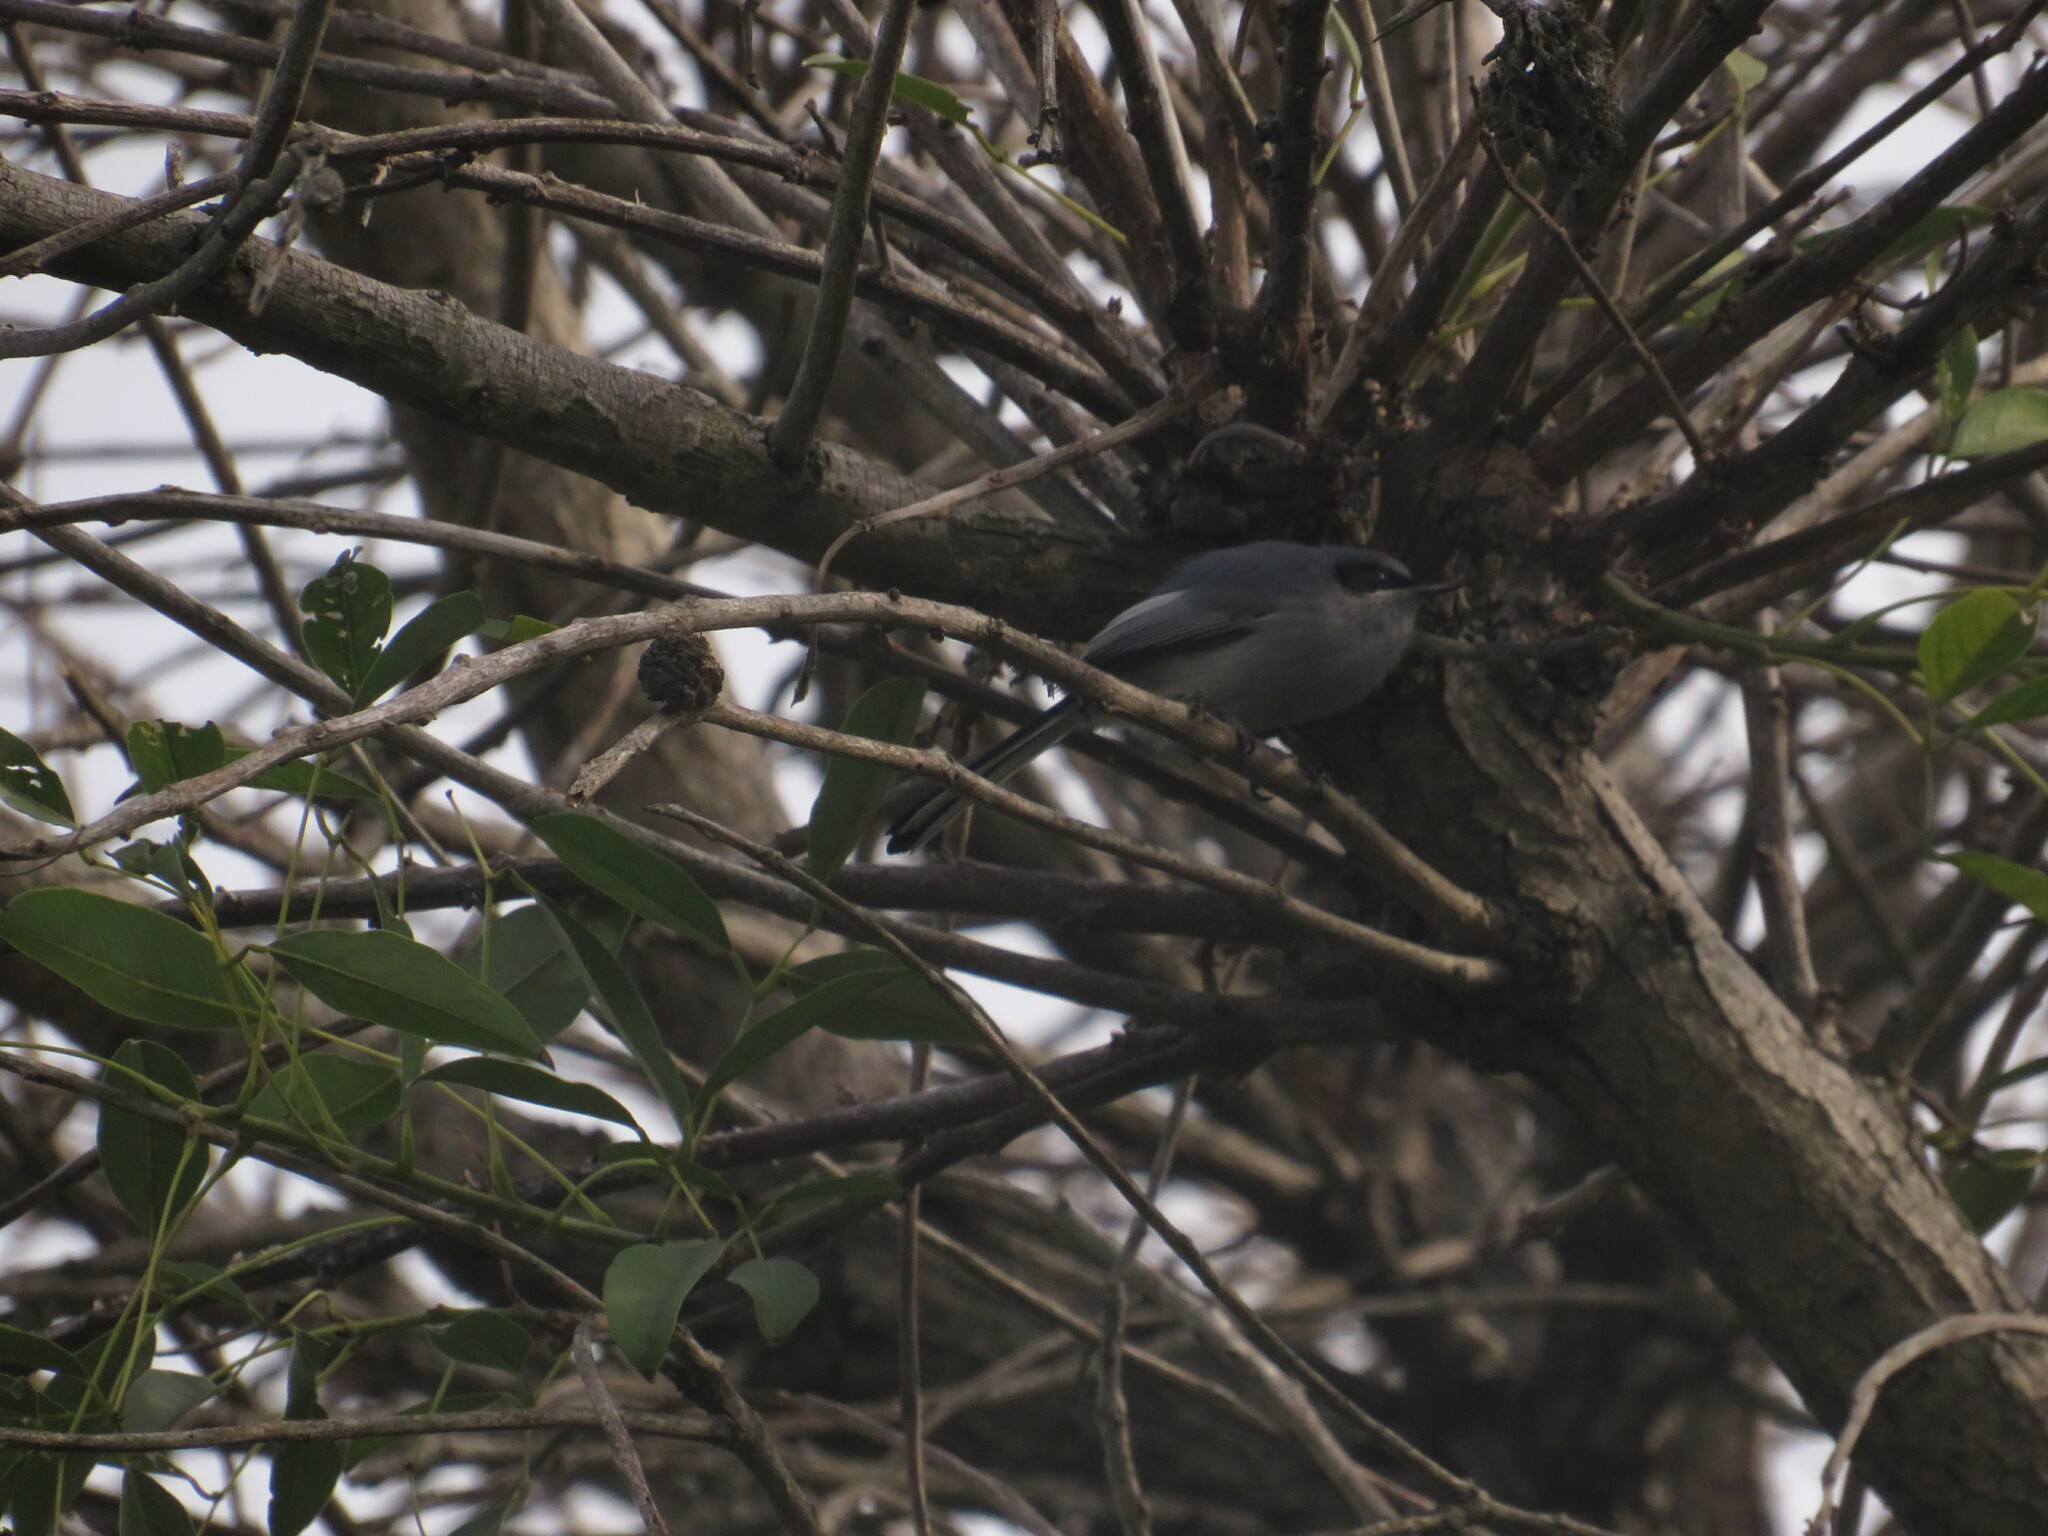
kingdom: Animalia
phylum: Chordata
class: Aves
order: Passeriformes
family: Polioptilidae
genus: Polioptila
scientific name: Polioptila dumicola
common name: Masked gnatcatcher
